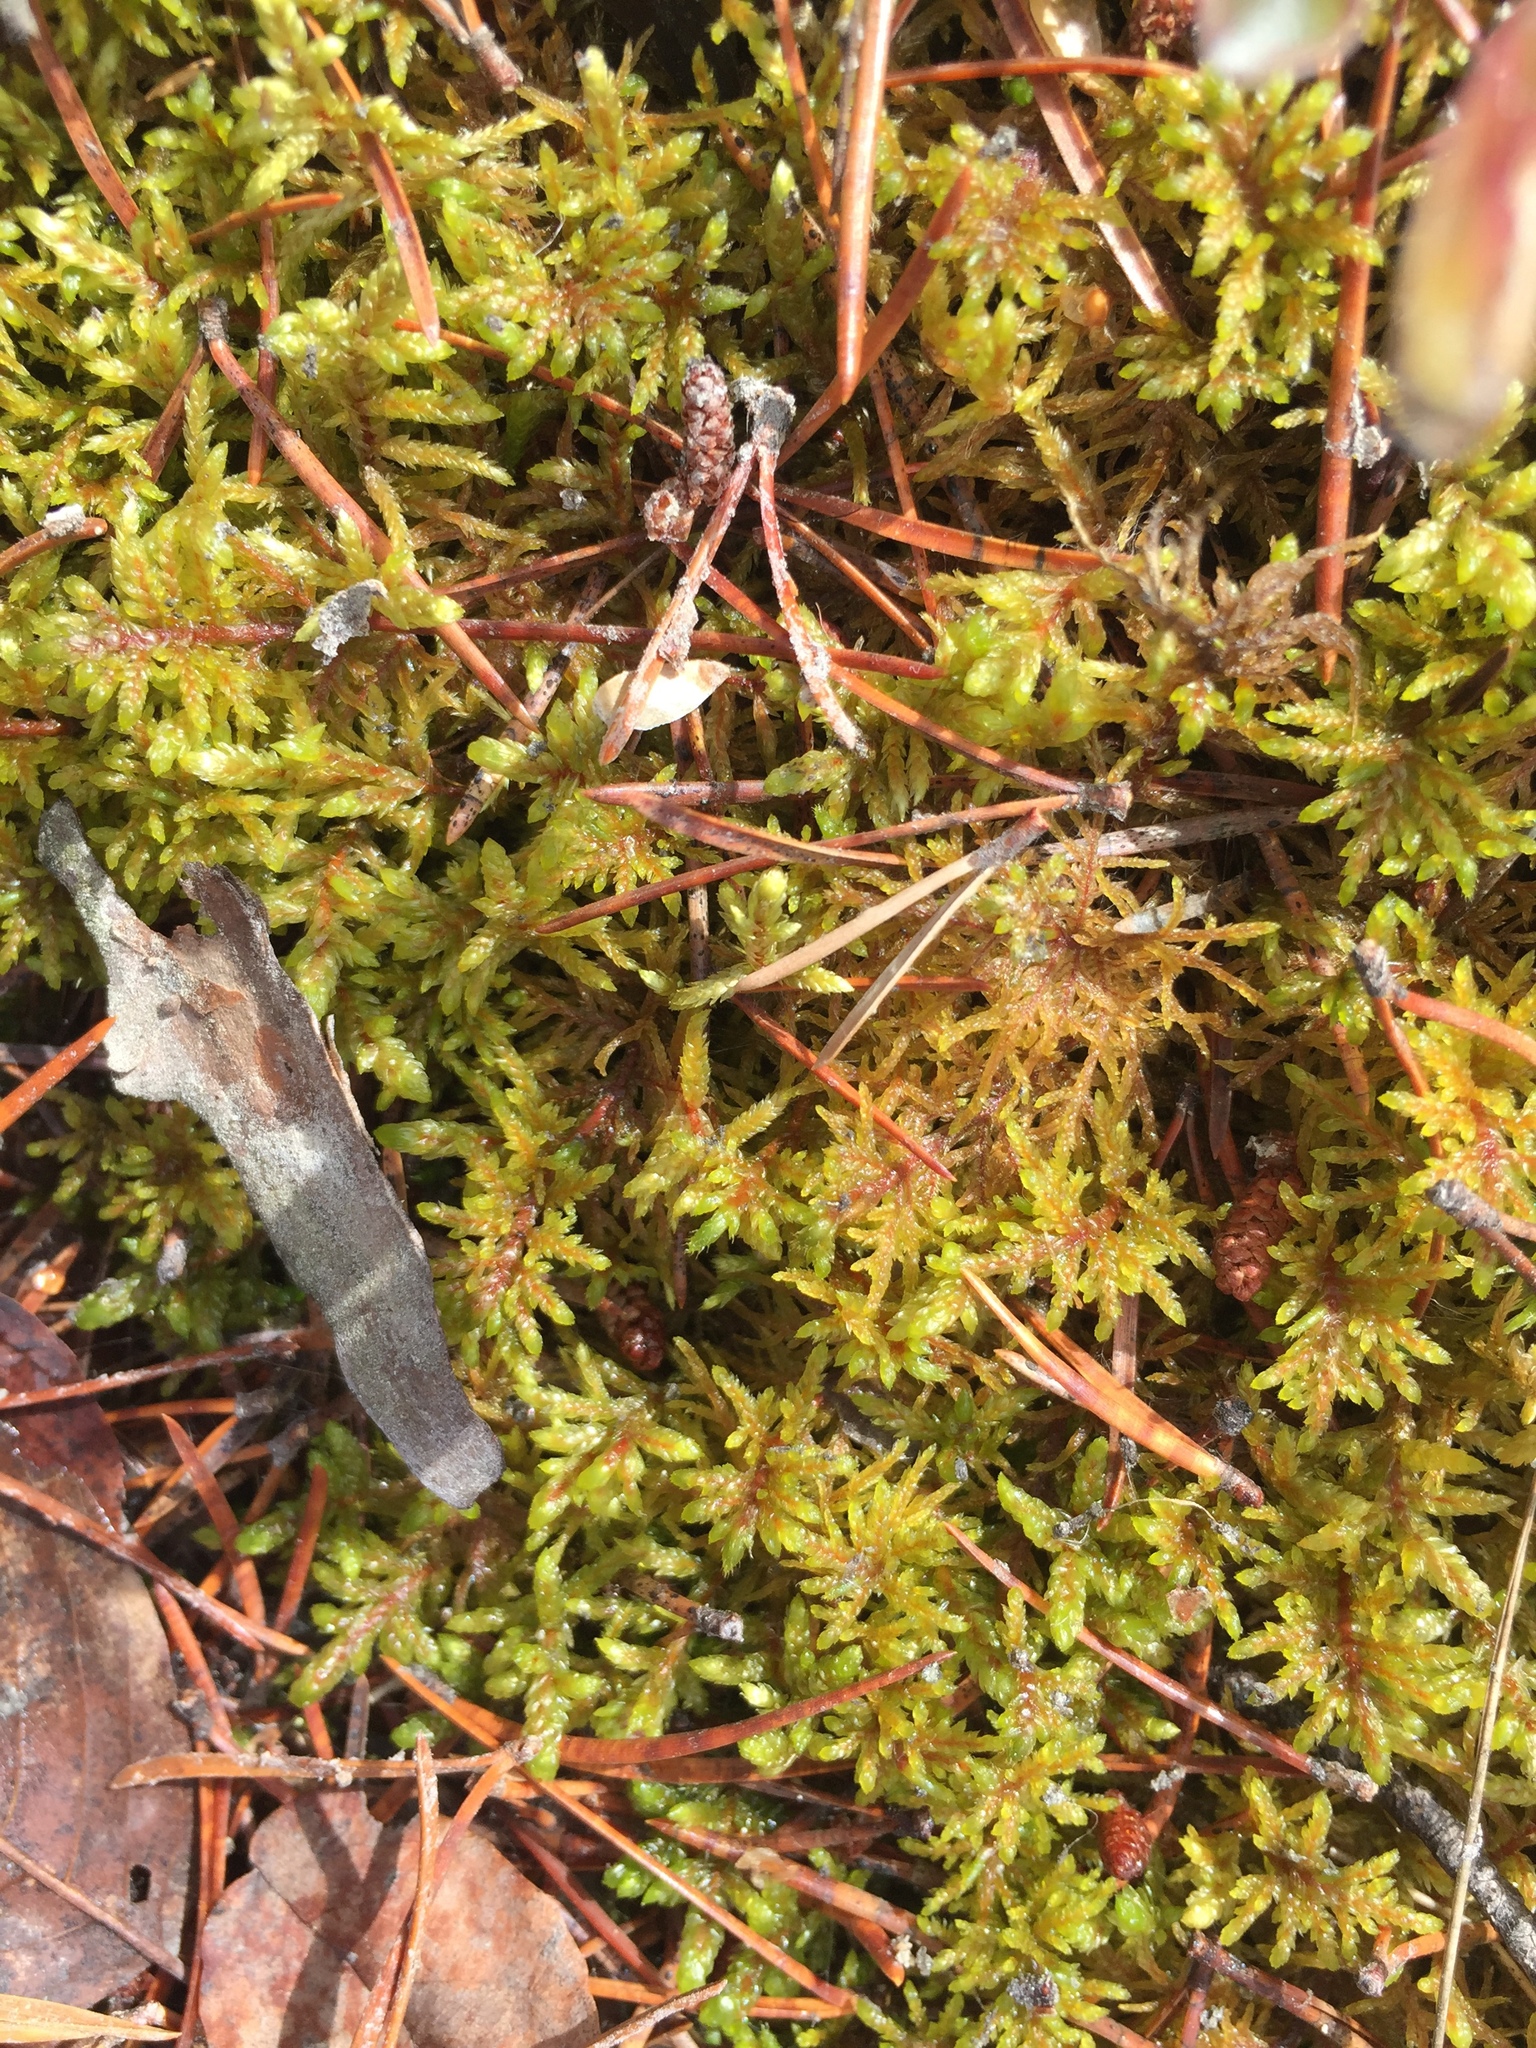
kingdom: Plantae
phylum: Bryophyta
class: Bryopsida
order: Hypnales
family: Hylocomiaceae
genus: Pleurozium
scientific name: Pleurozium schreberi
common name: Red-stemmed feather moss
